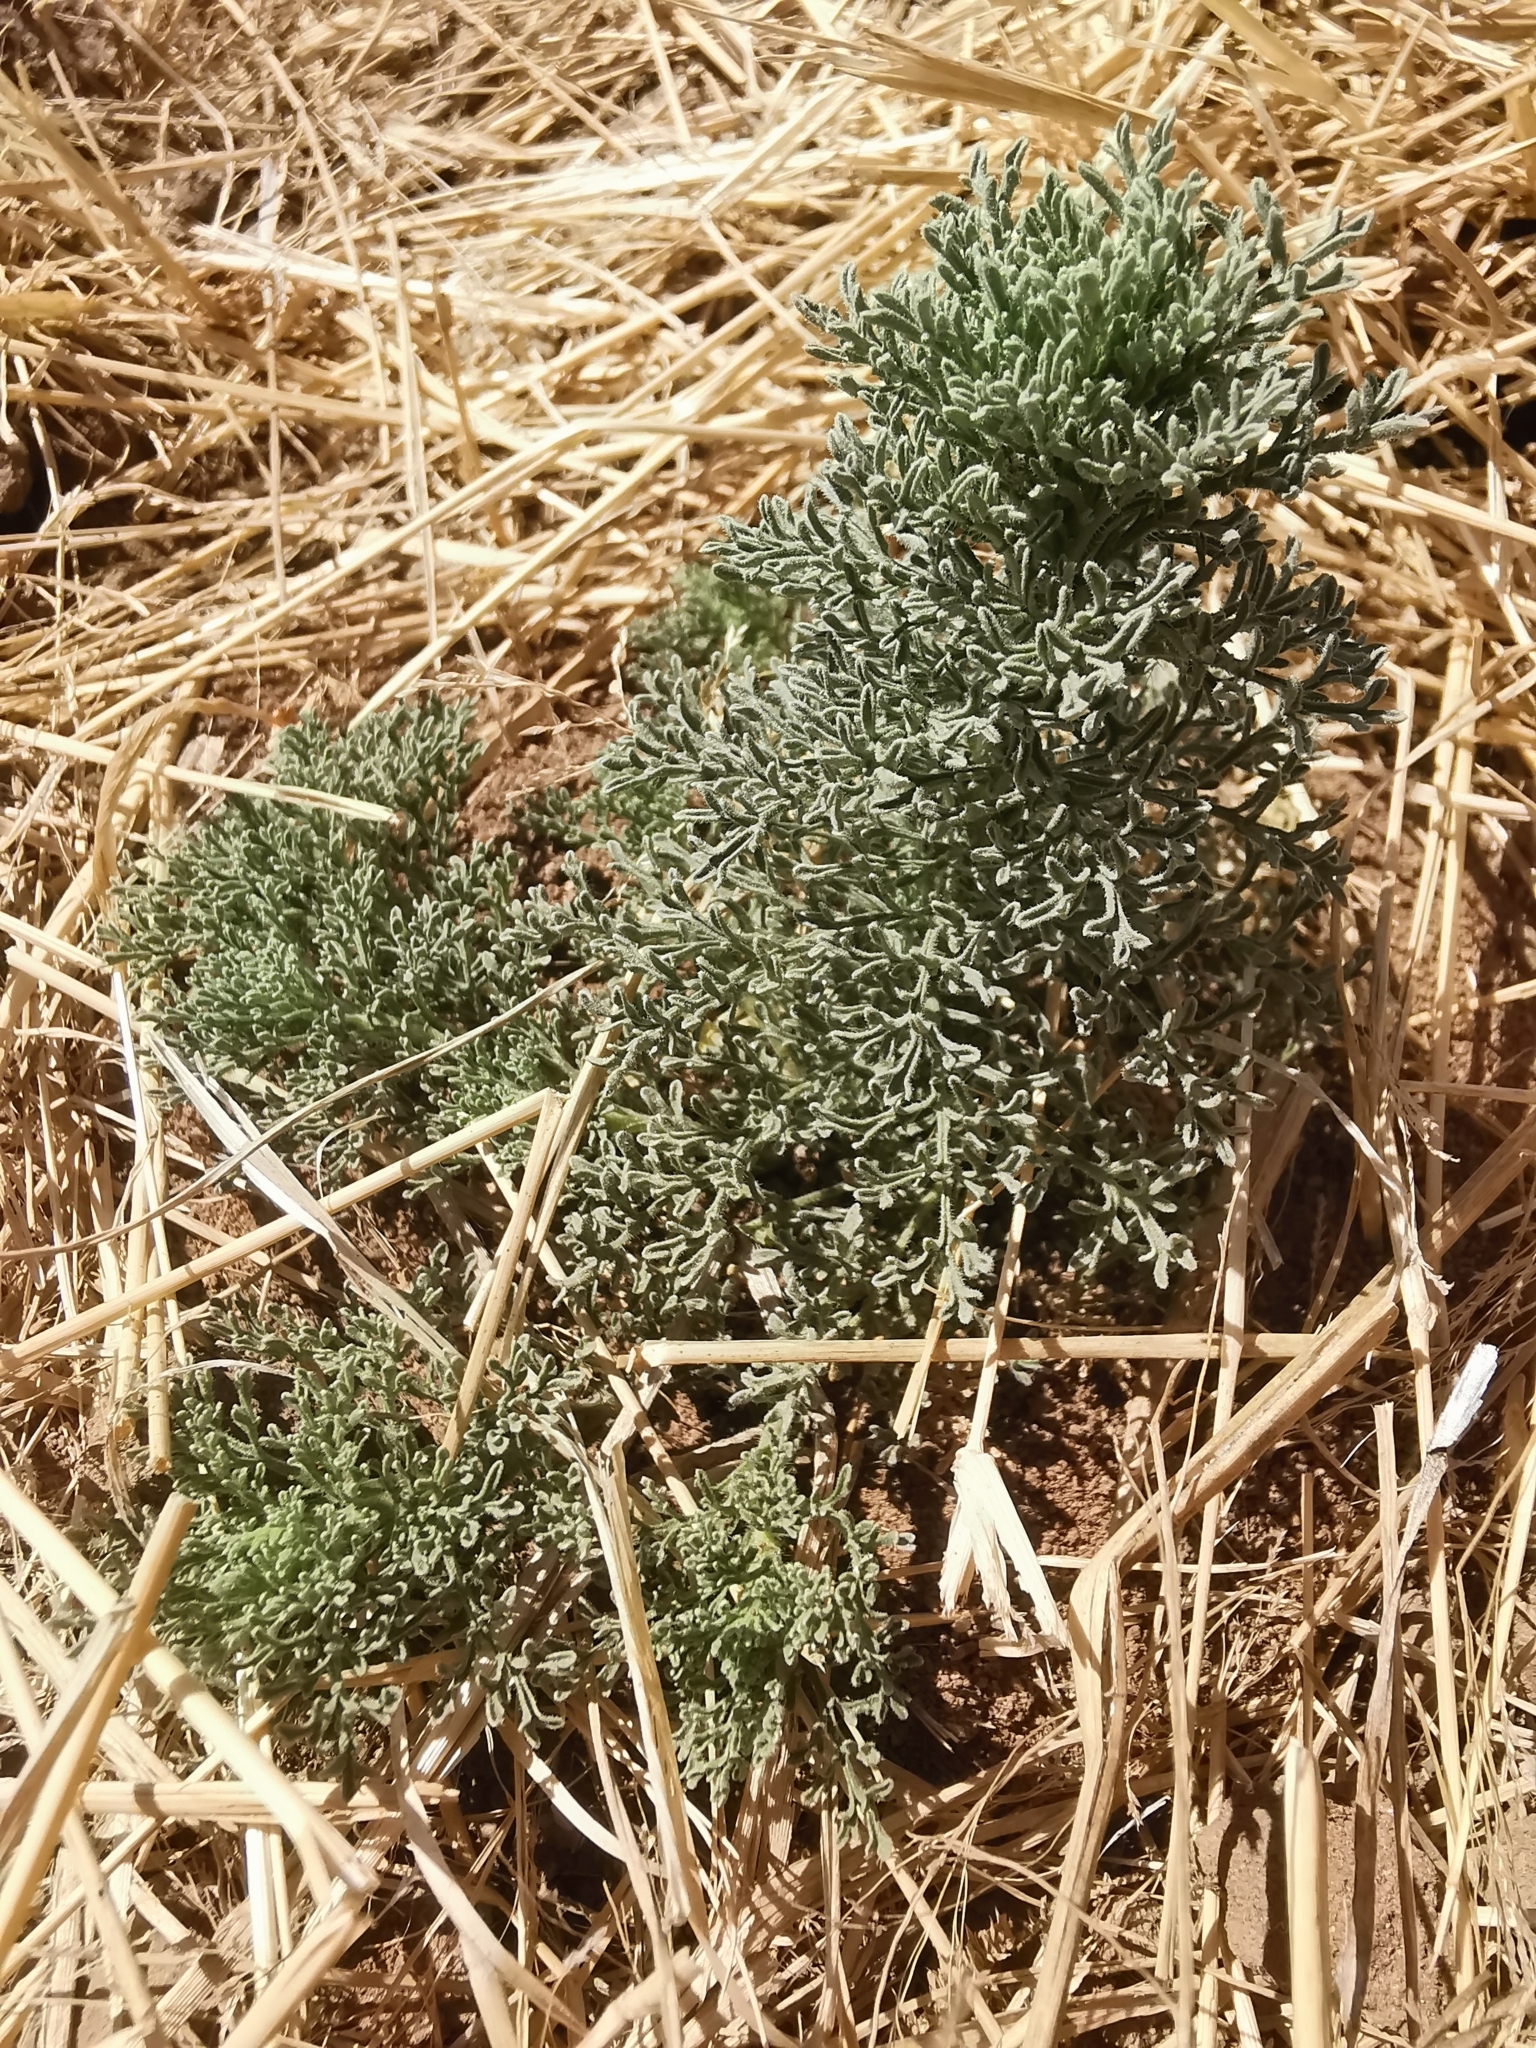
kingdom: Plantae
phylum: Tracheophyta
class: Magnoliopsida
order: Asterales
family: Asteraceae
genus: Laennecia
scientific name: Laennecia sophiifolia
